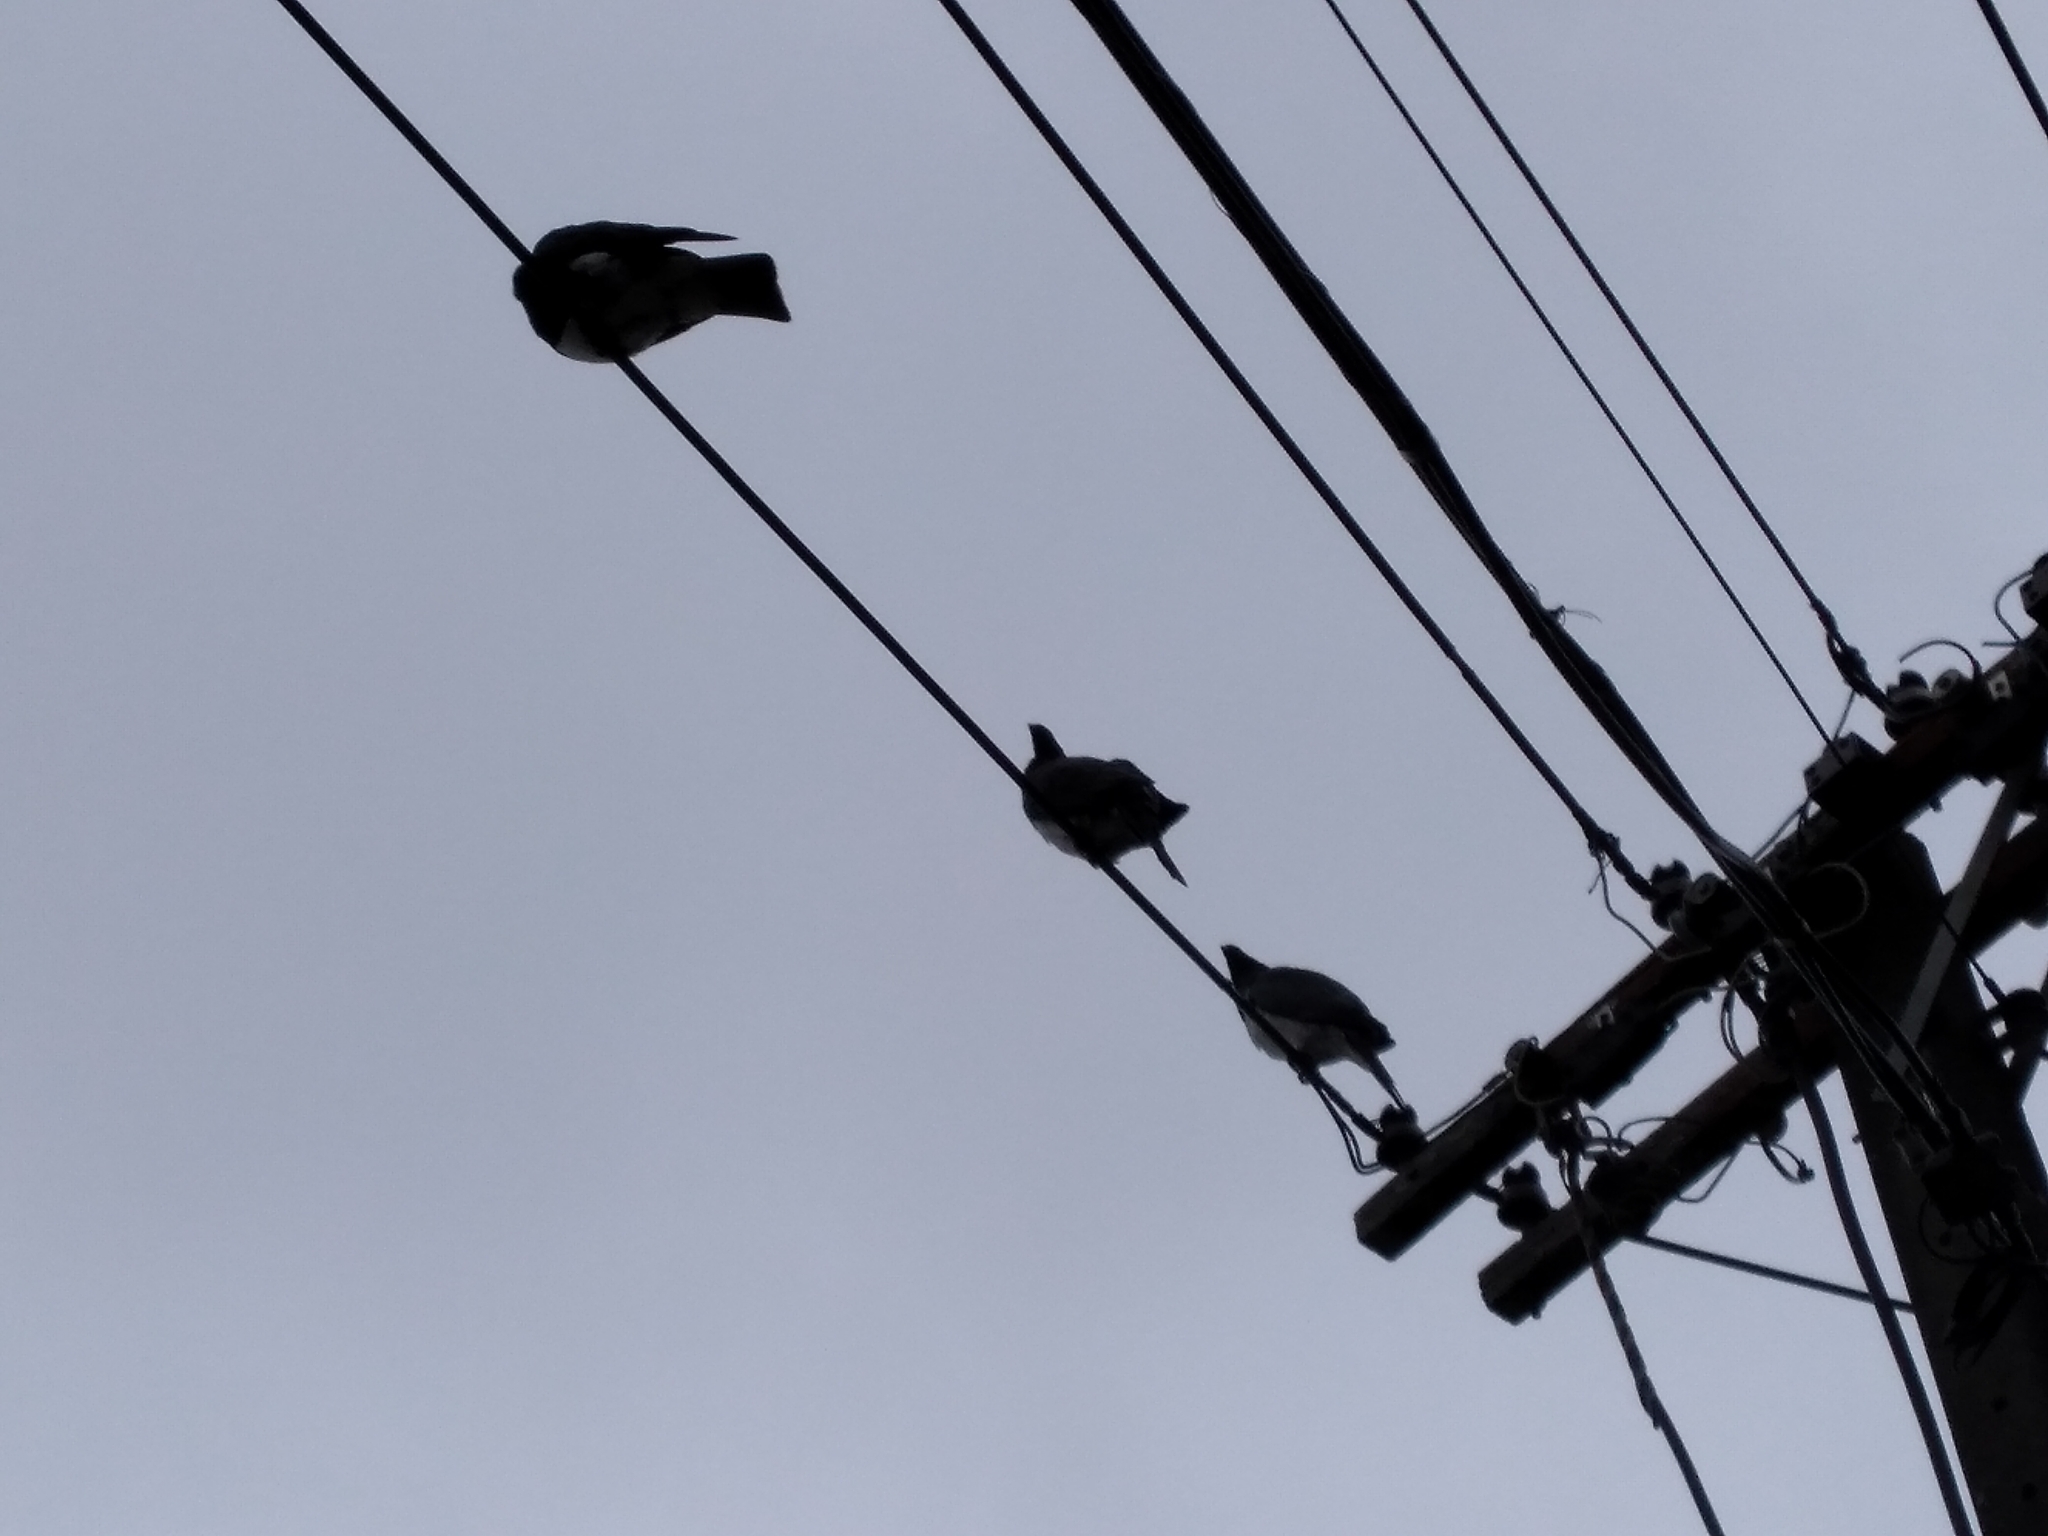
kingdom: Animalia
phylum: Chordata
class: Aves
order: Columbiformes
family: Columbidae
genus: Hemiphaga
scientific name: Hemiphaga novaeseelandiae
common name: New zealand pigeon
